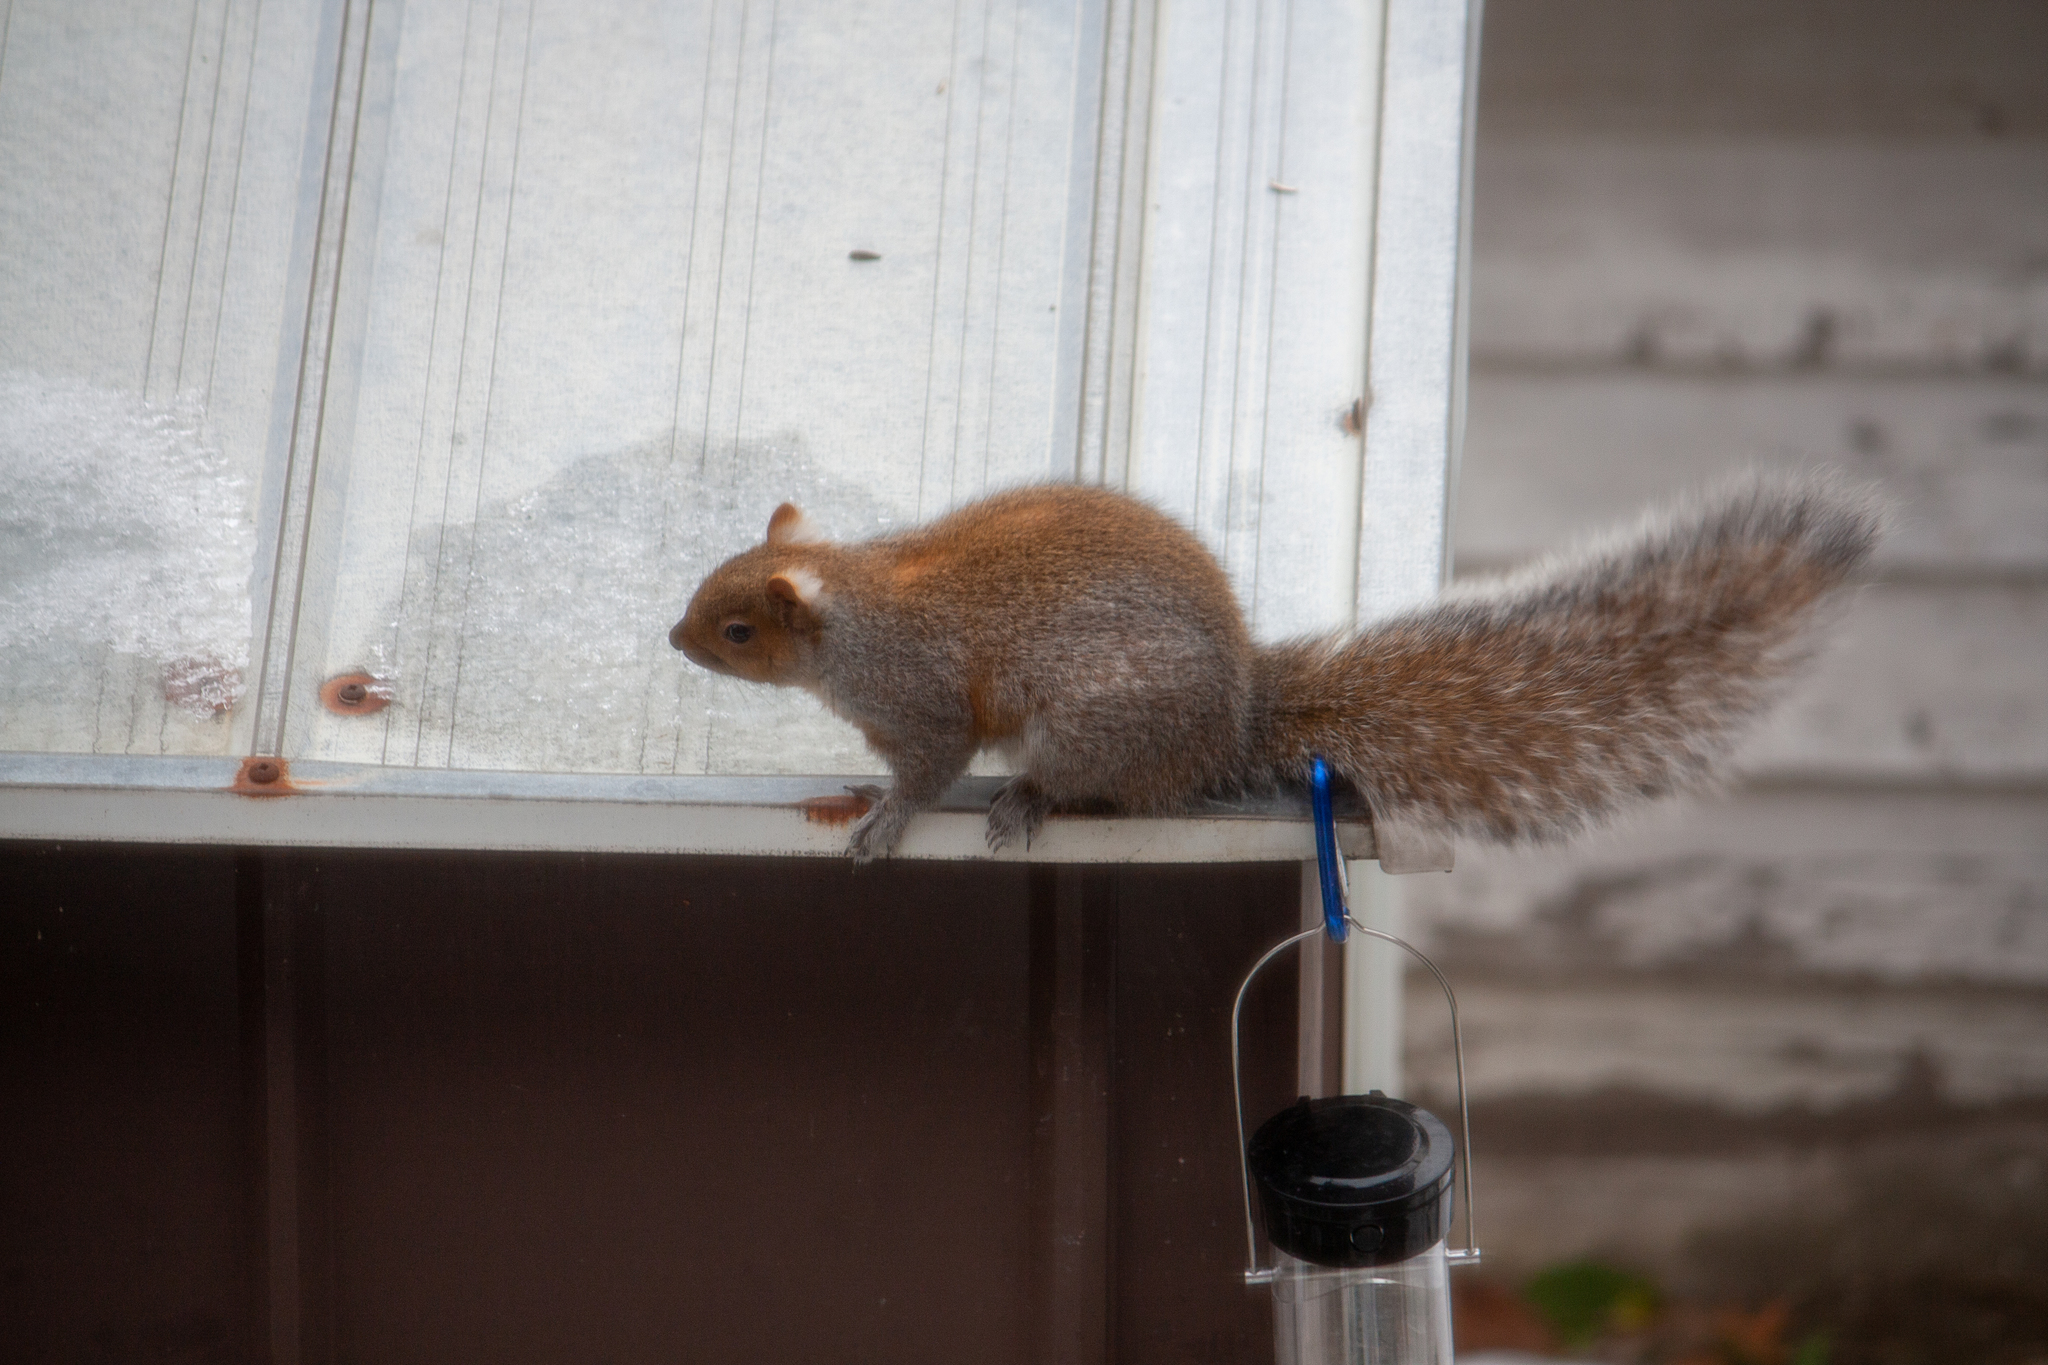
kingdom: Animalia
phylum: Chordata
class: Mammalia
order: Rodentia
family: Sciuridae
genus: Sciurus
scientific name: Sciurus carolinensis
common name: Eastern gray squirrel
